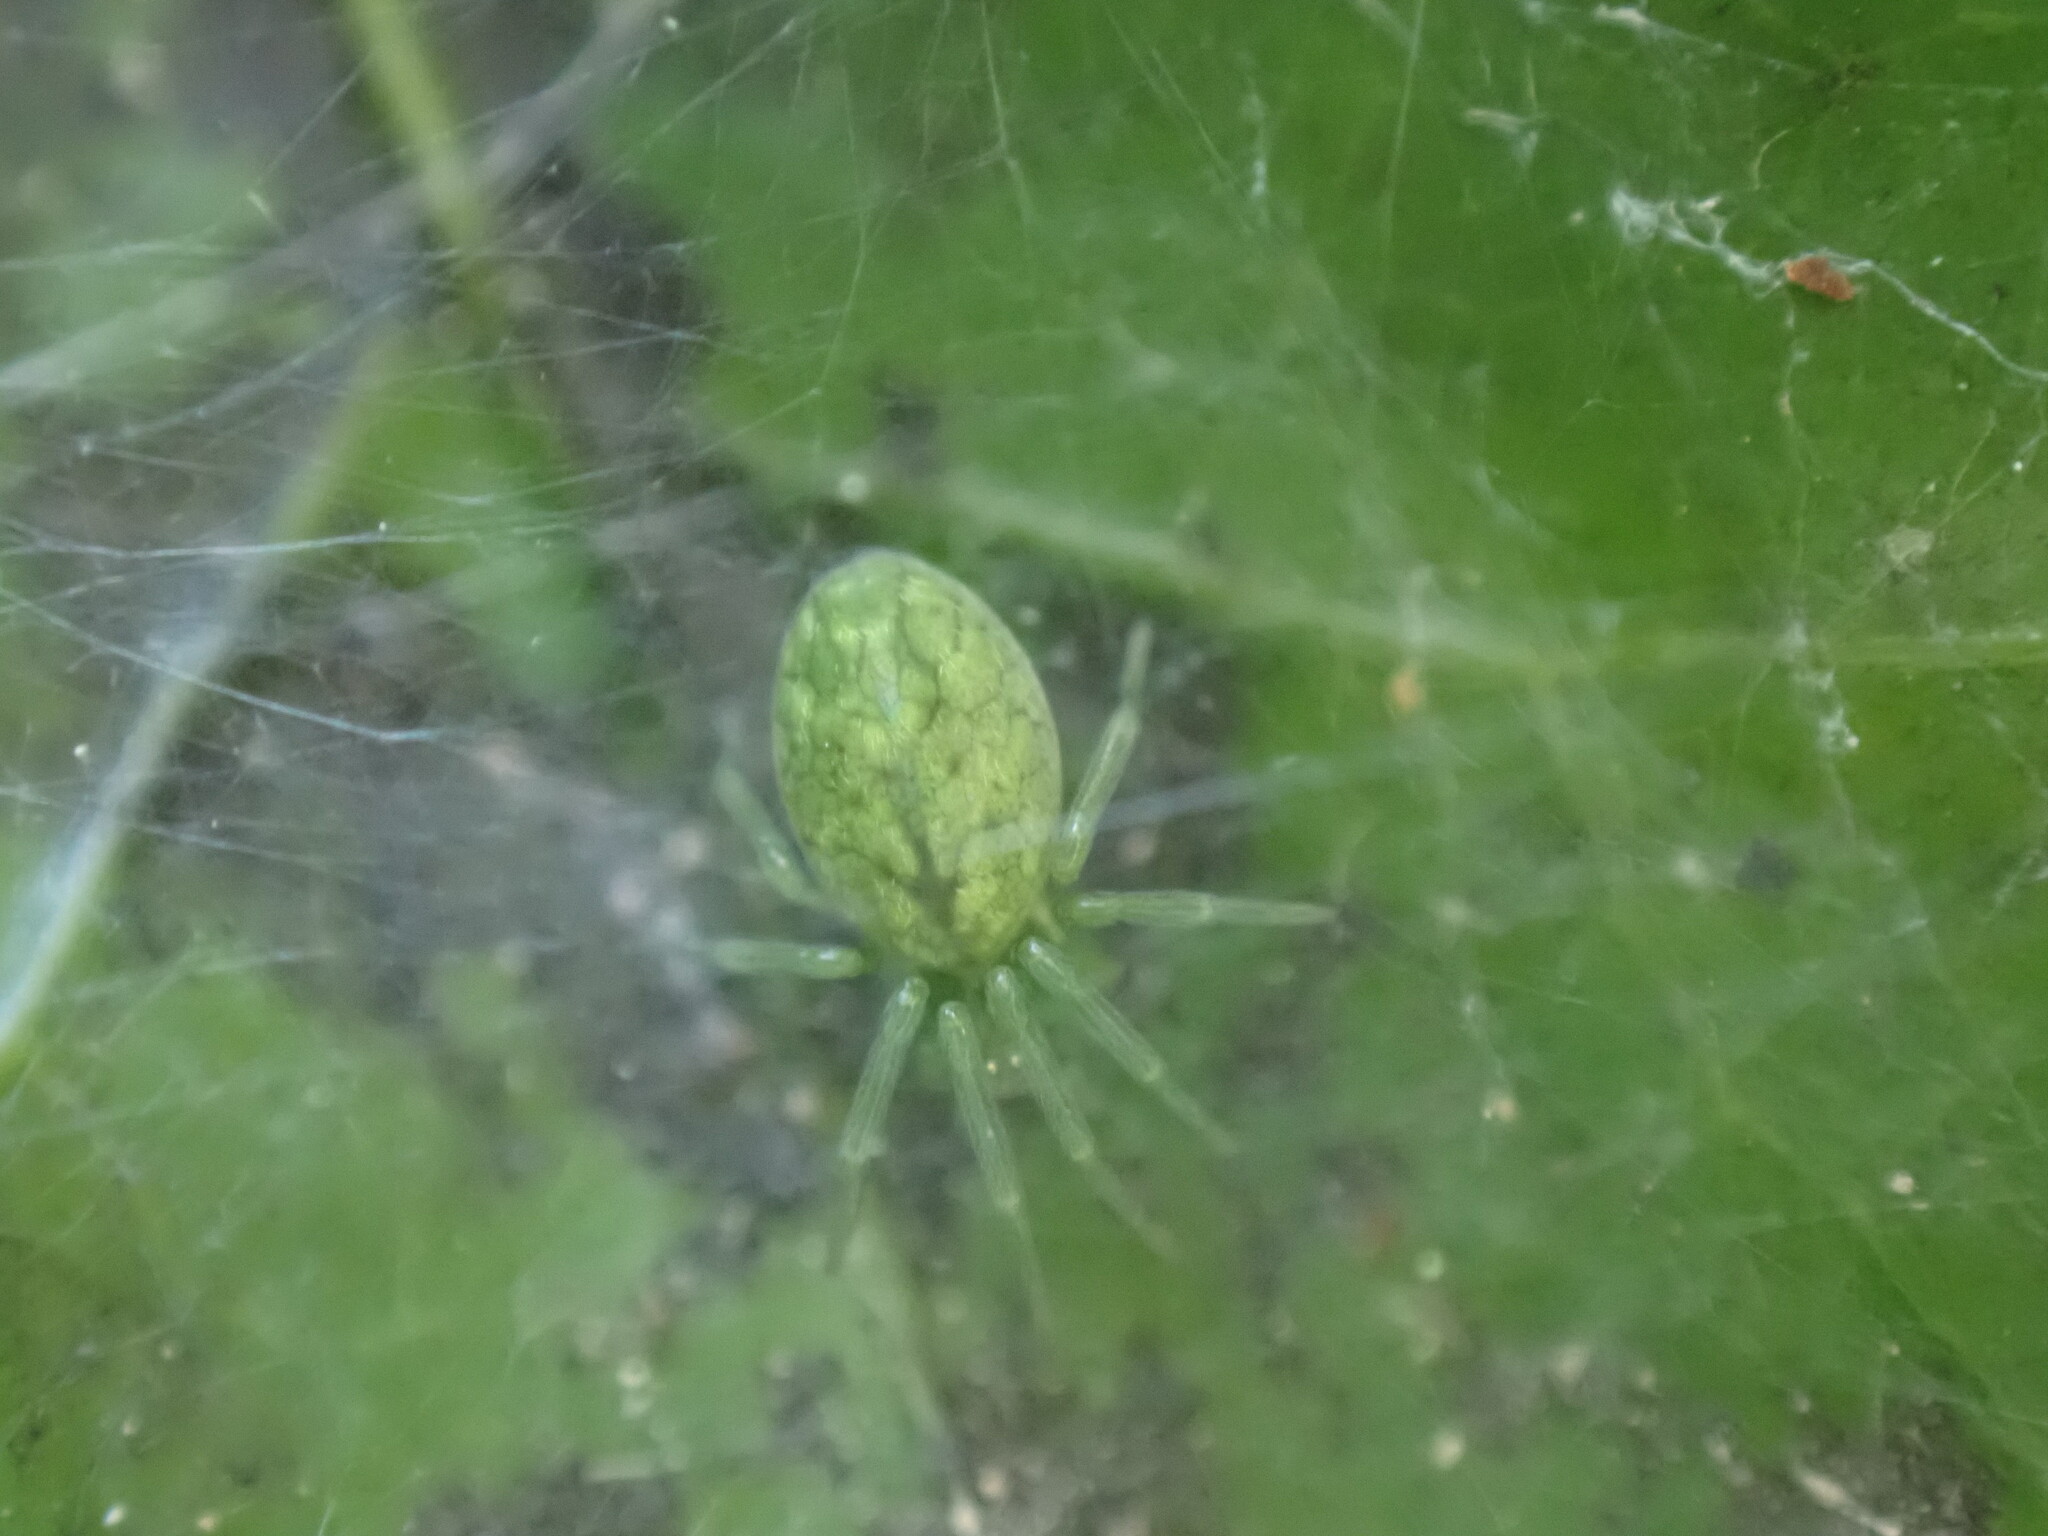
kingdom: Animalia
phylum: Arthropoda
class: Arachnida
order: Araneae
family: Dictynidae
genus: Nigma
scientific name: Nigma walckenaeri
